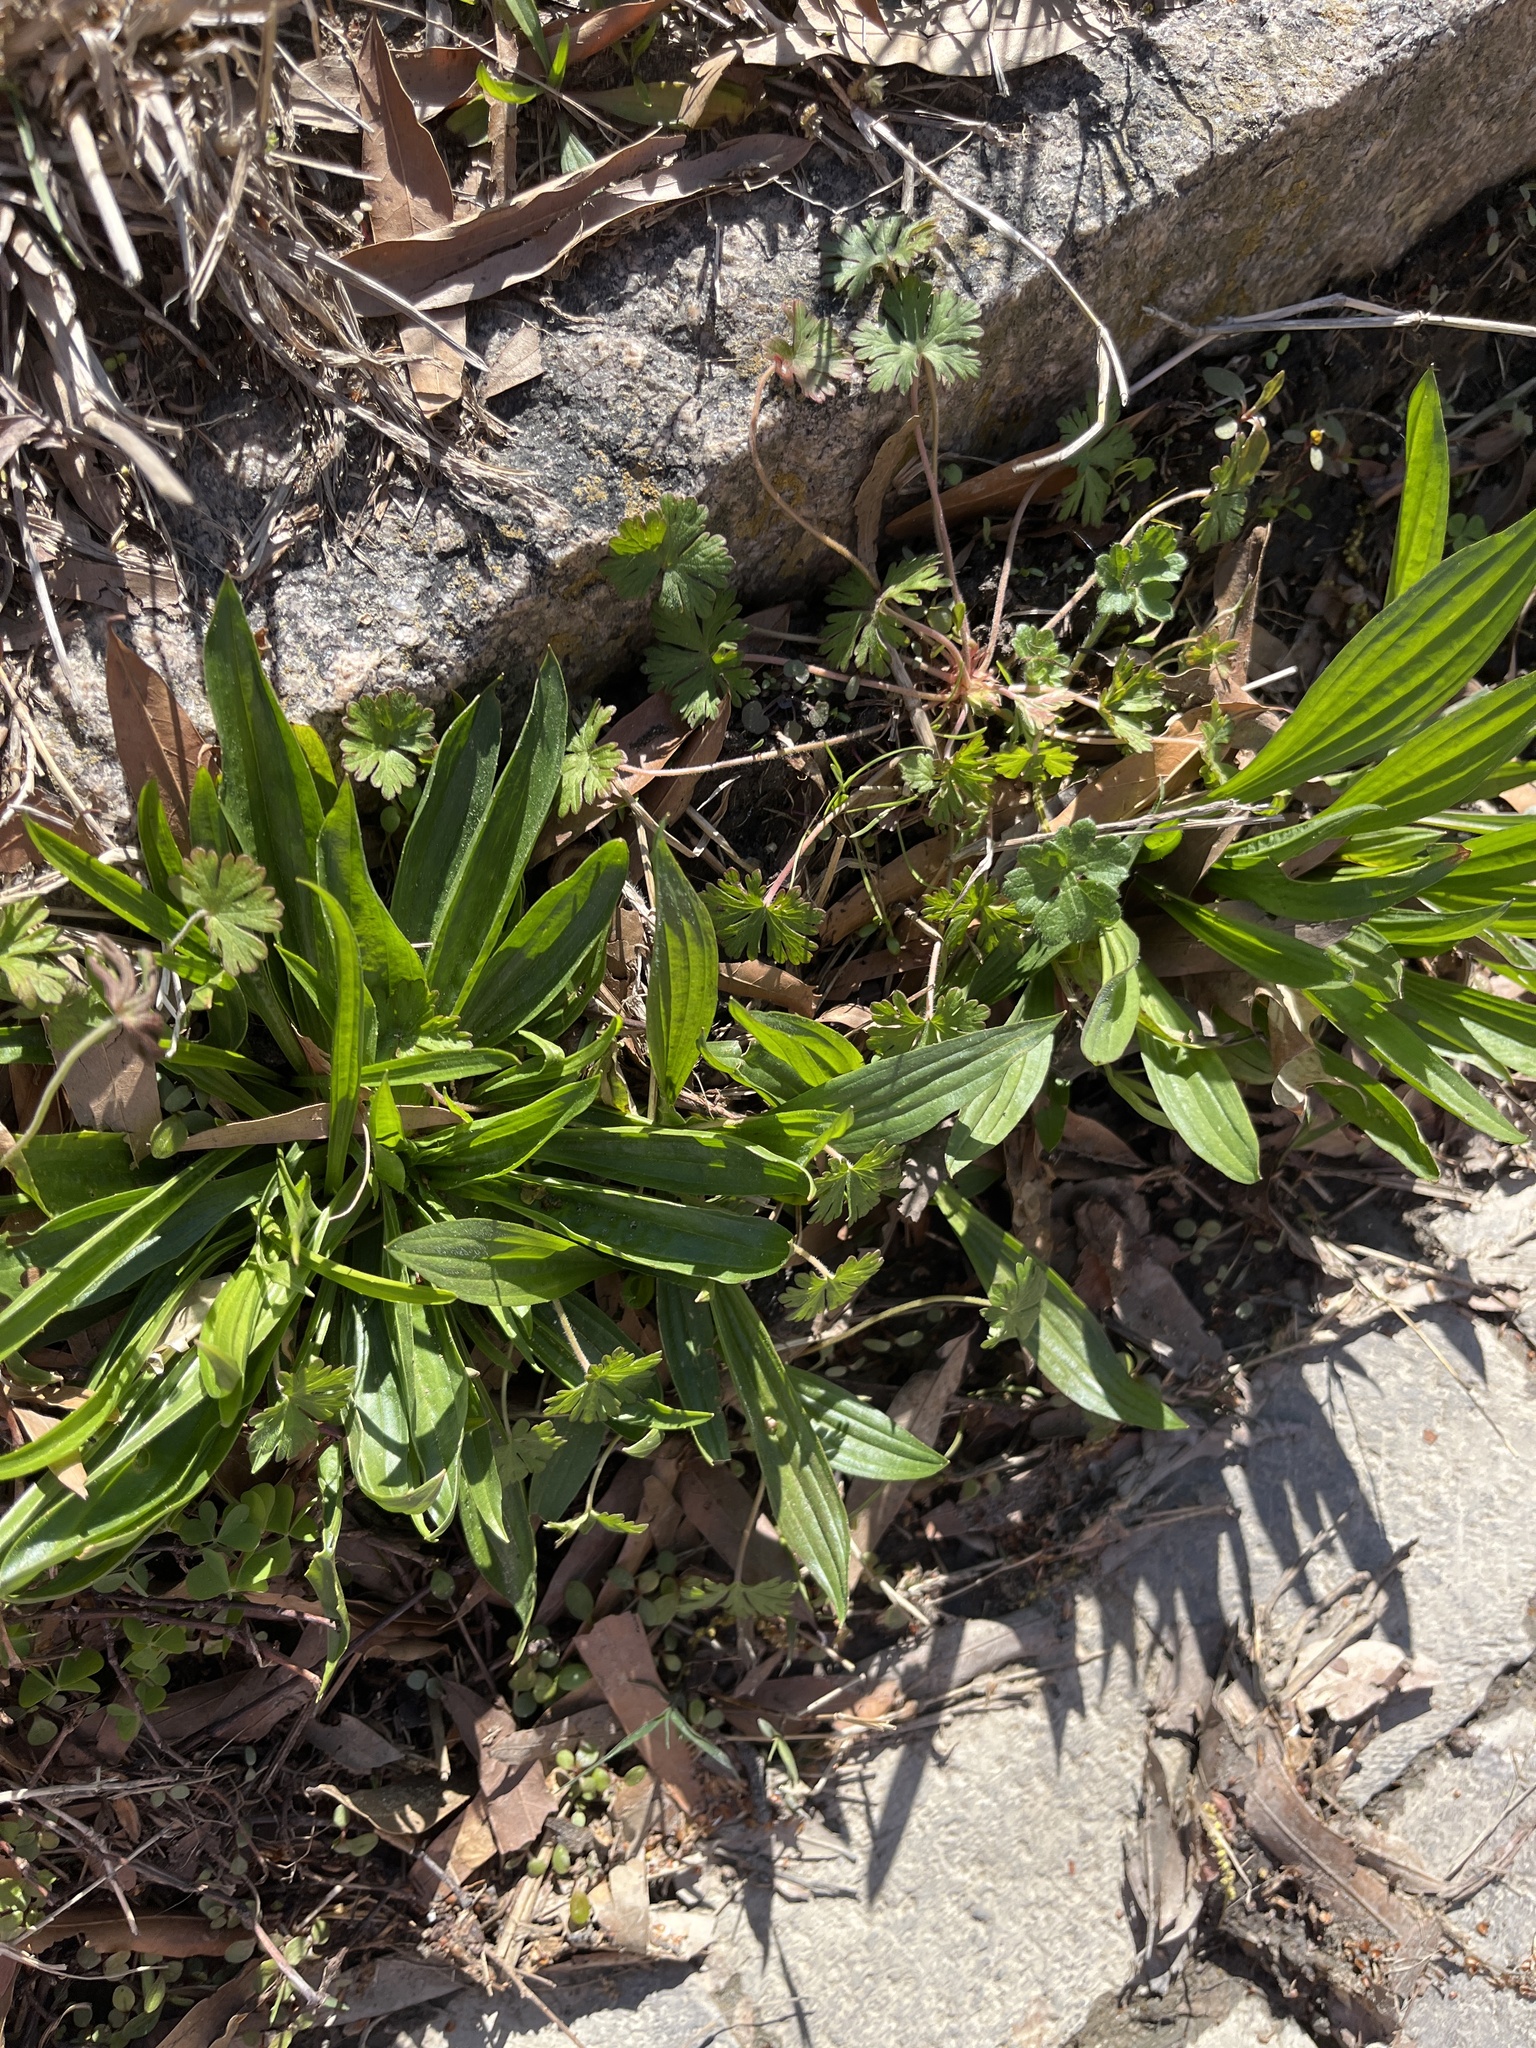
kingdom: Plantae
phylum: Tracheophyta
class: Magnoliopsida
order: Lamiales
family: Plantaginaceae
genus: Plantago
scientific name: Plantago lanceolata
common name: Ribwort plantain
